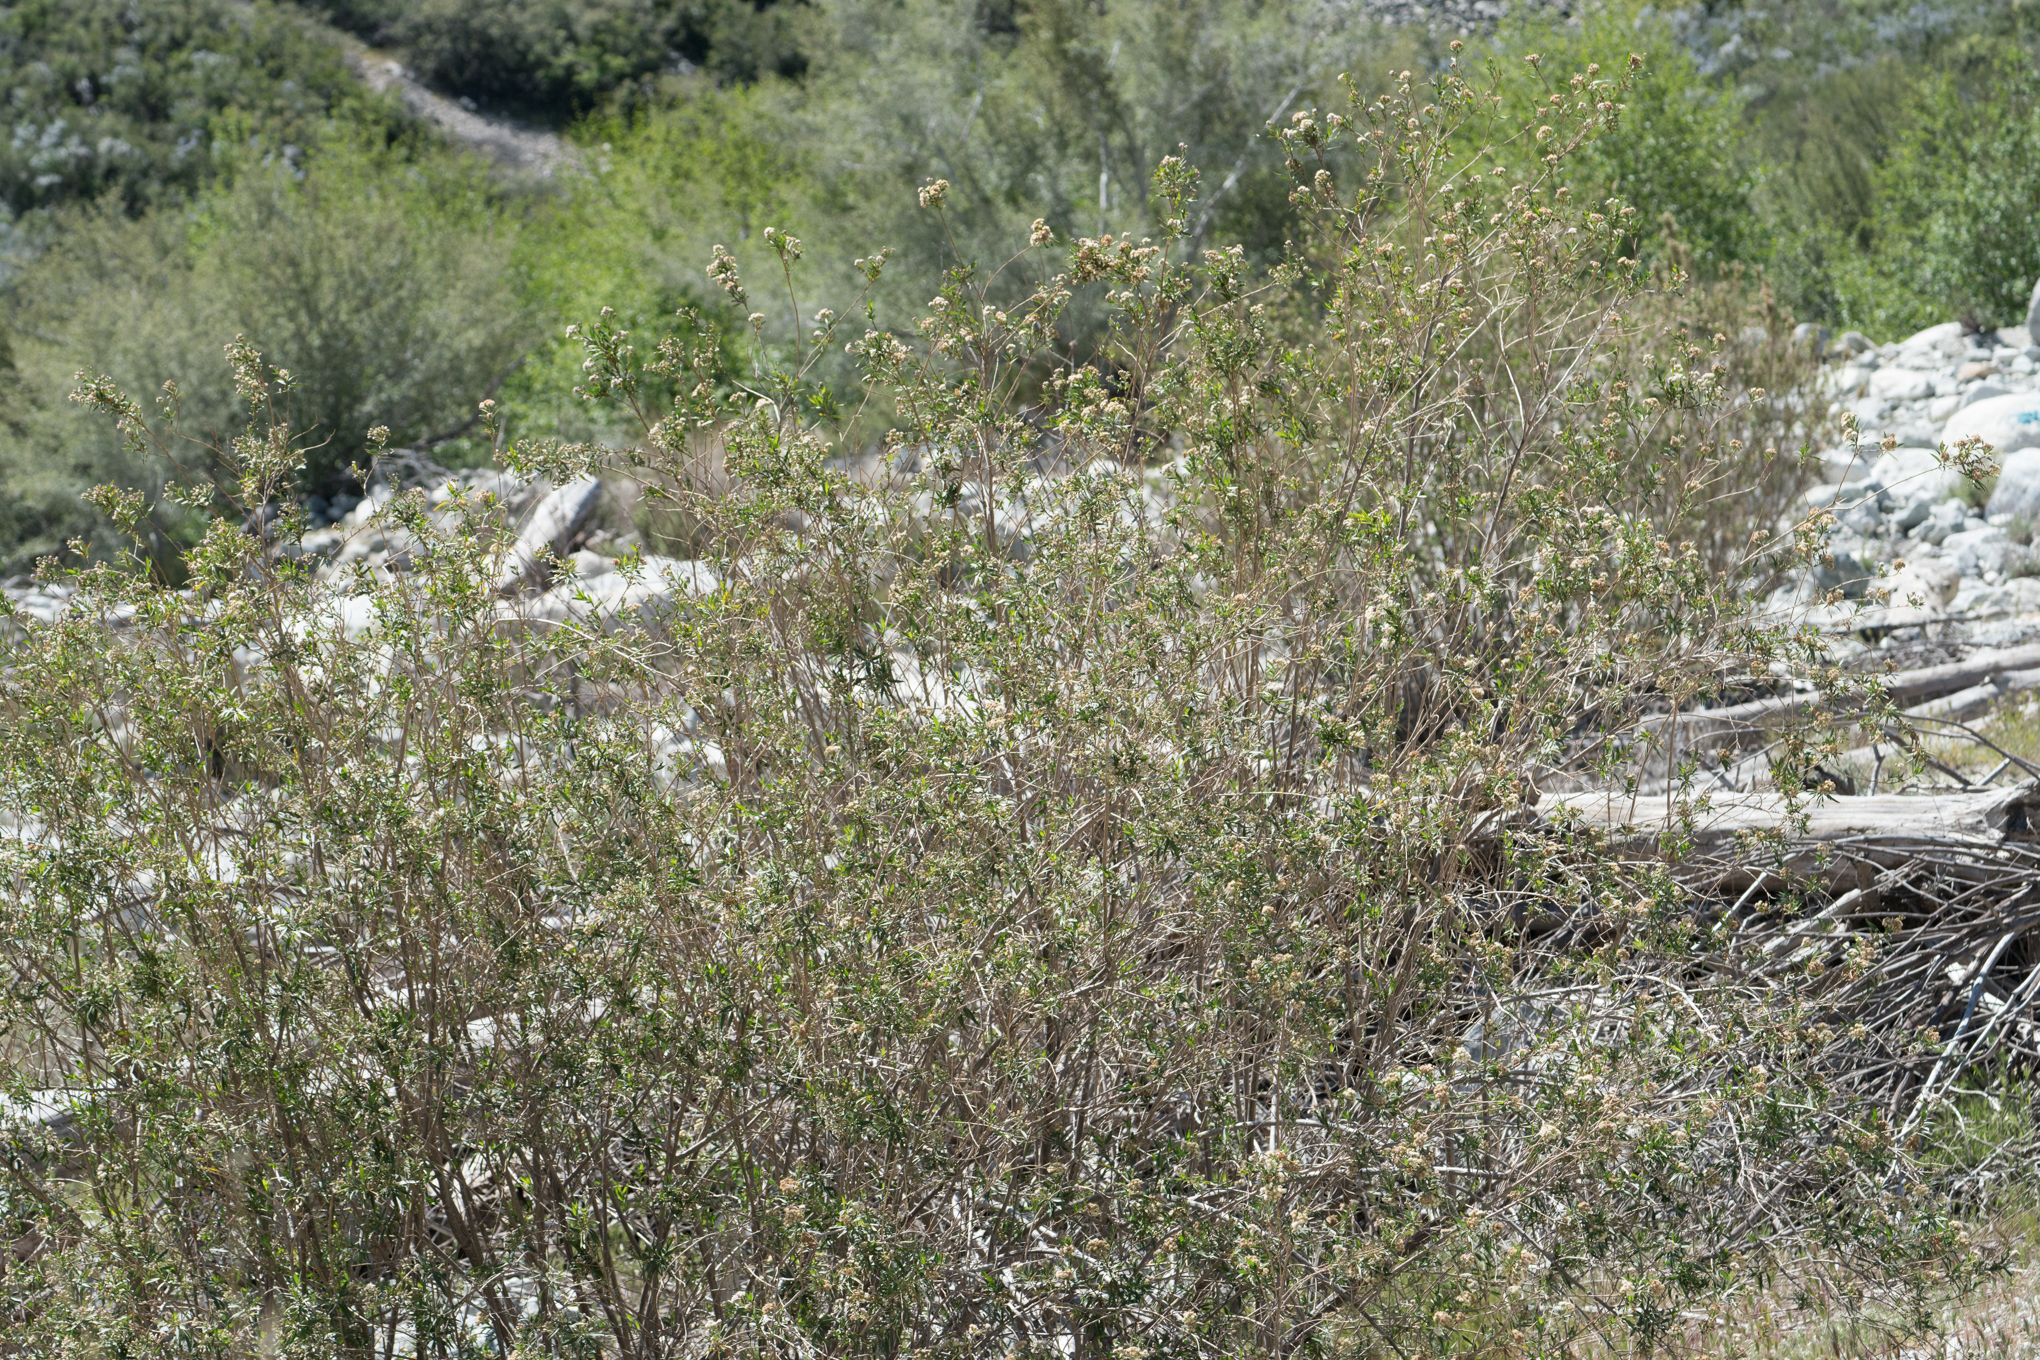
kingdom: Plantae
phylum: Tracheophyta
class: Magnoliopsida
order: Asterales
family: Asteraceae
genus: Baccharis
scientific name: Baccharis salicifolia
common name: Sticky baccharis
